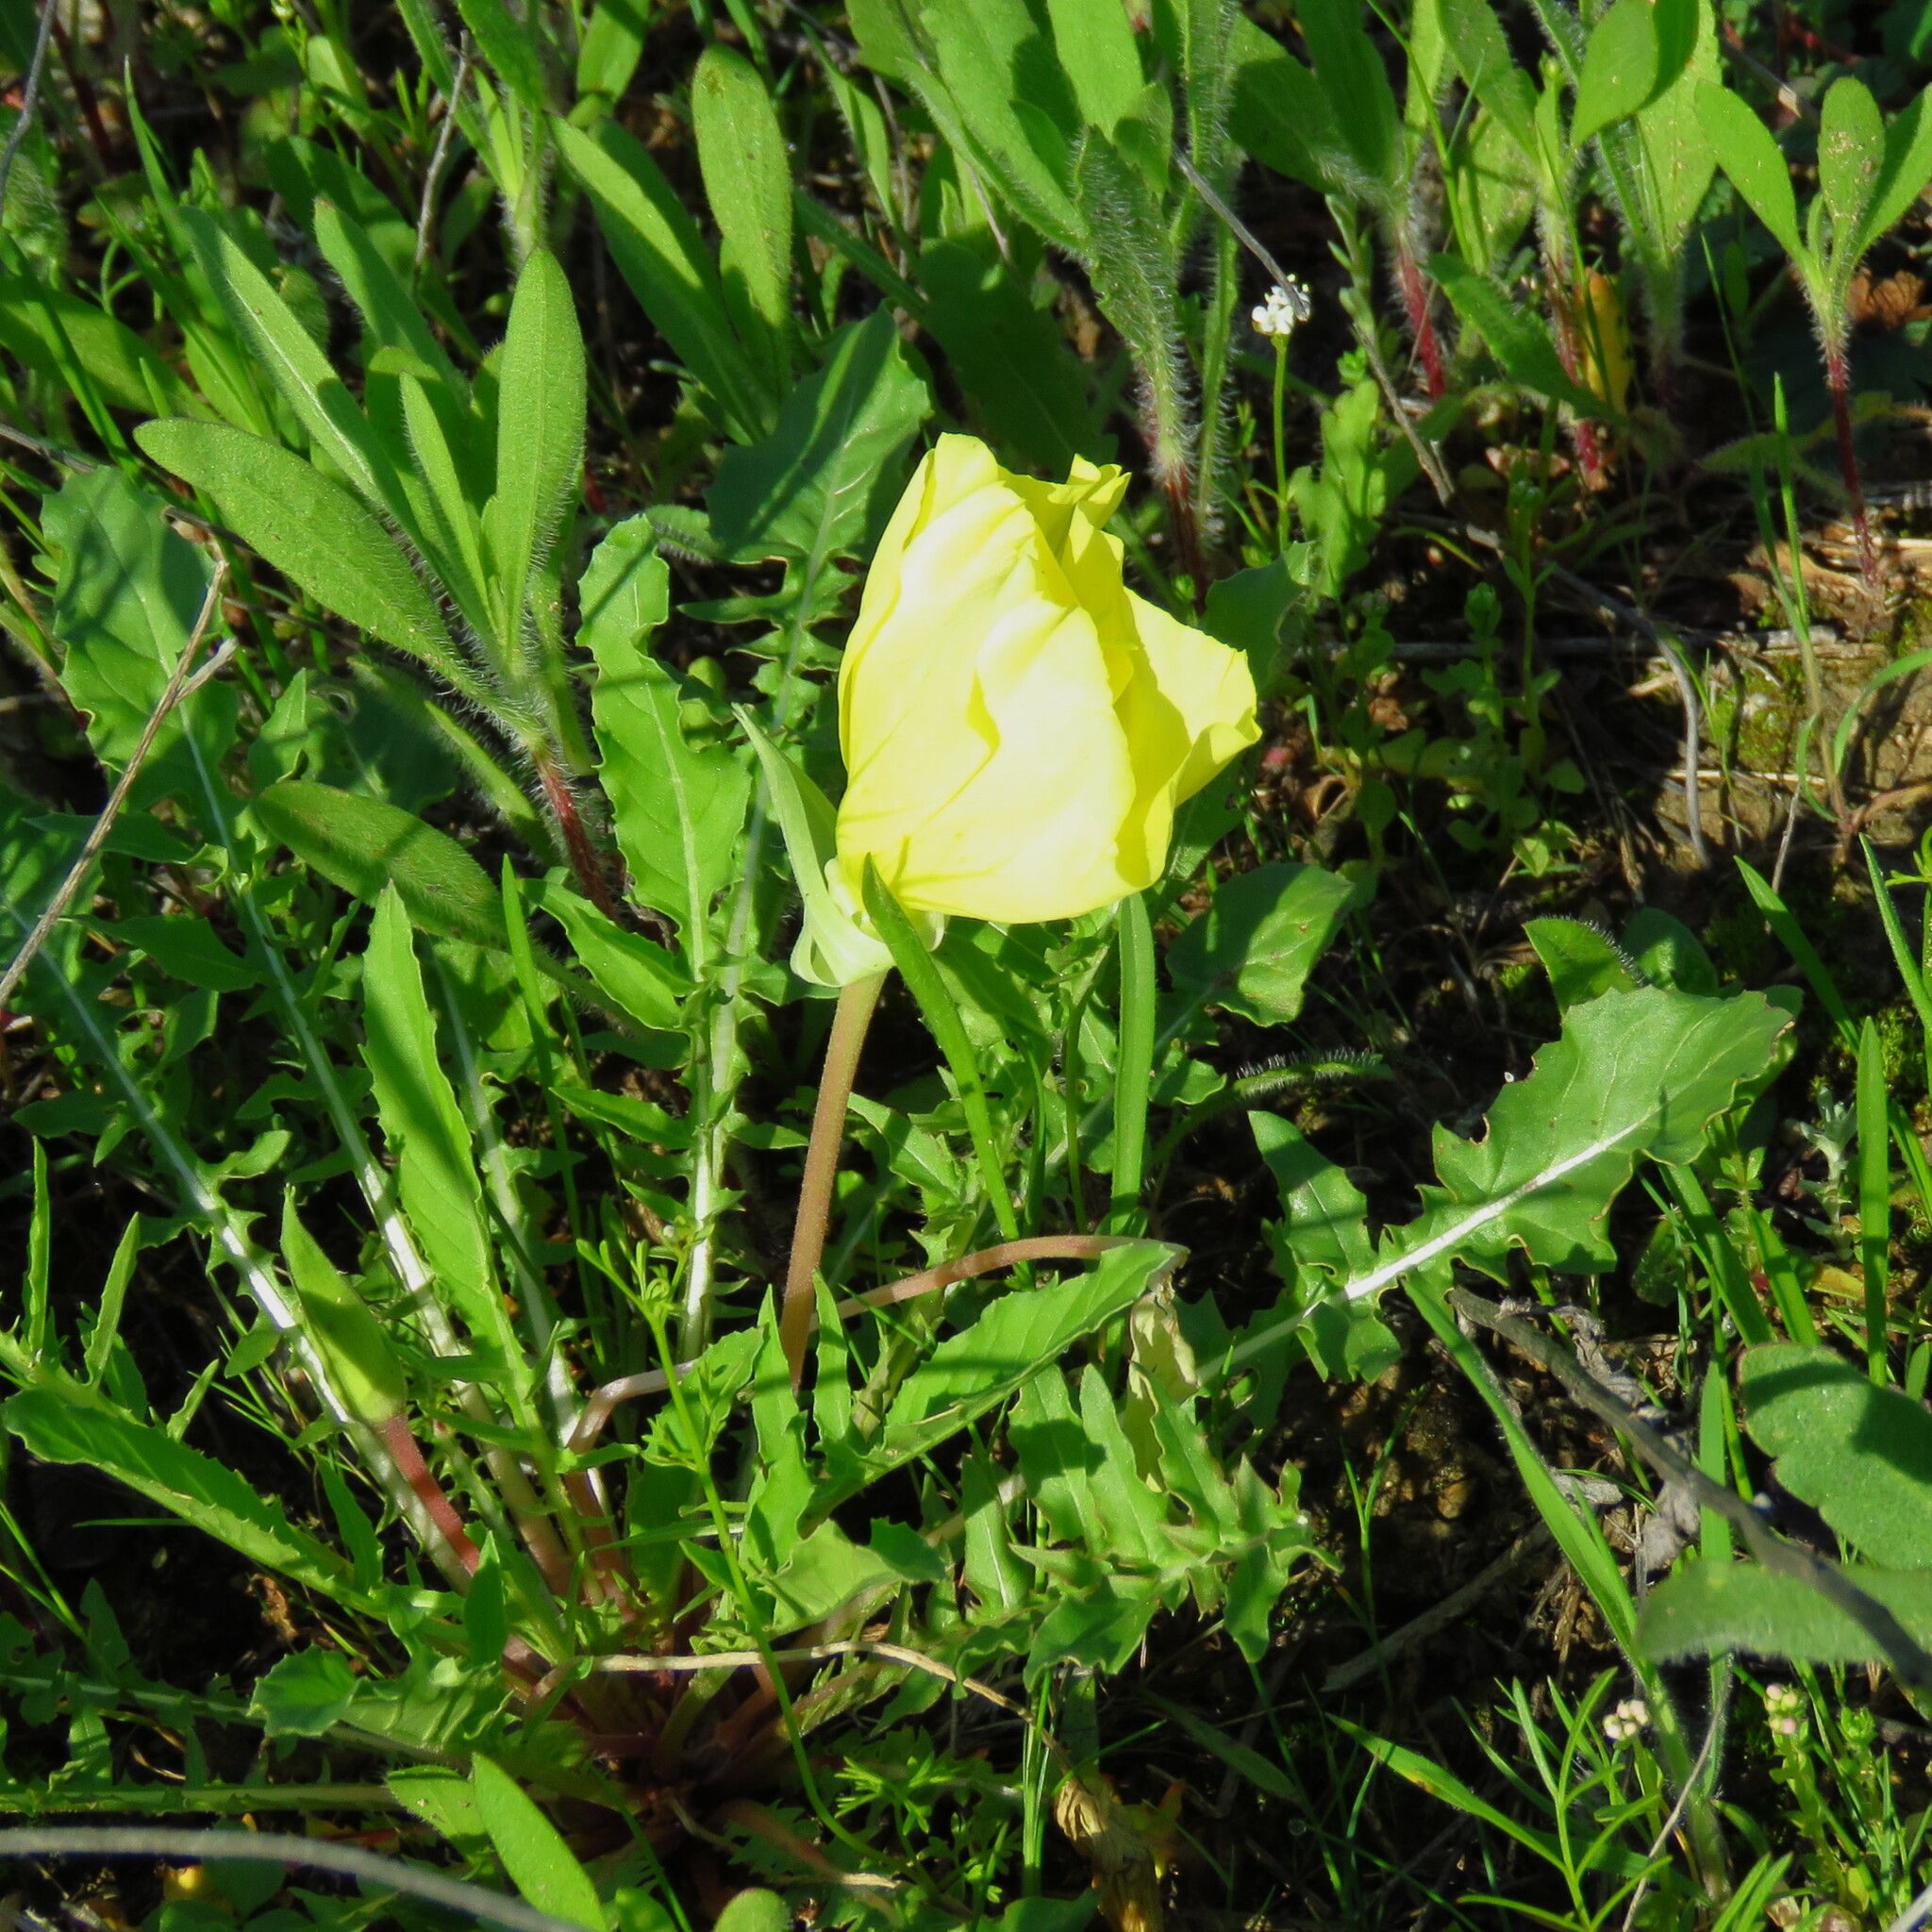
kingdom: Plantae
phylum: Tracheophyta
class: Magnoliopsida
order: Myrtales
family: Onagraceae
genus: Oenothera
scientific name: Oenothera triloba
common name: Sessile evening-primrose
